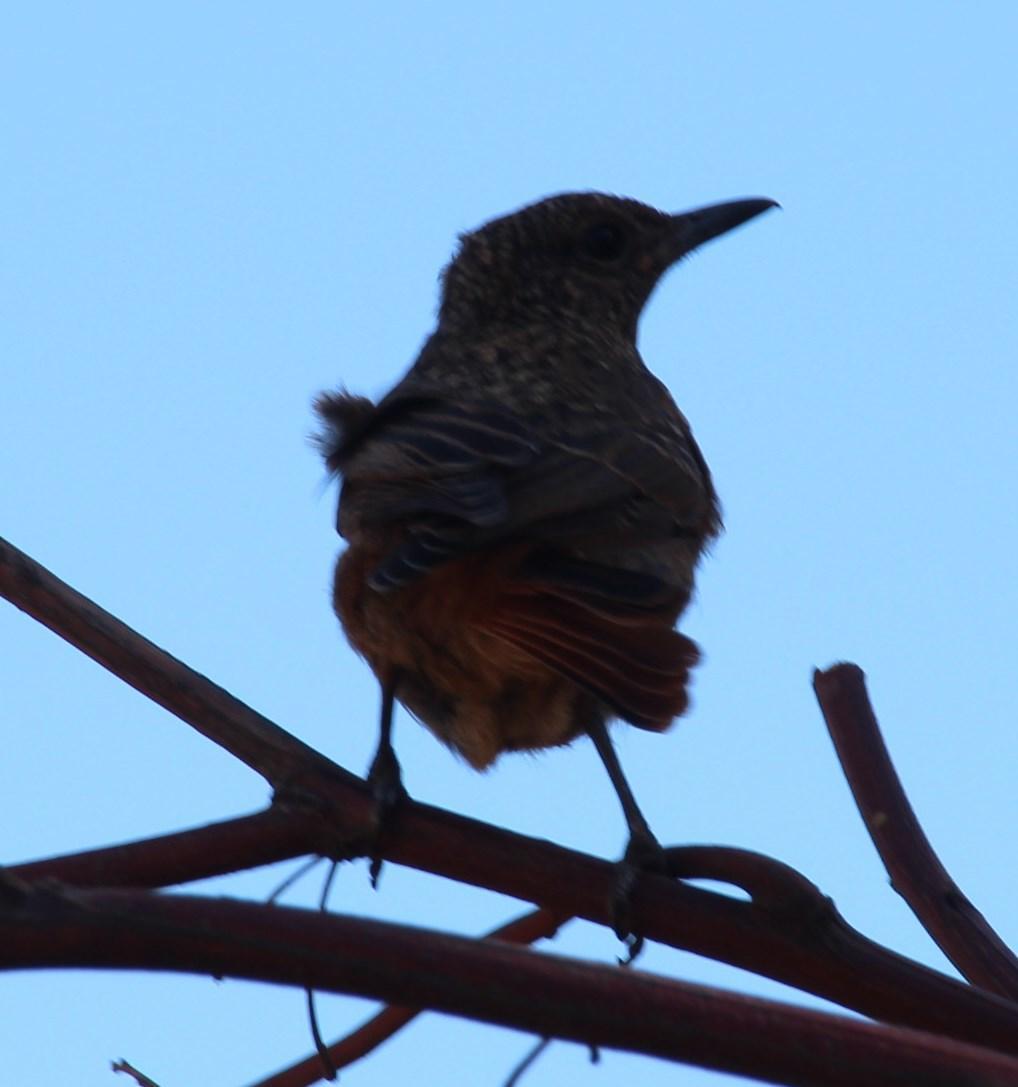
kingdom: Animalia
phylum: Chordata
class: Aves
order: Passeriformes
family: Muscicapidae
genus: Monticola
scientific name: Monticola rupestris
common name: Cape rock thrush
